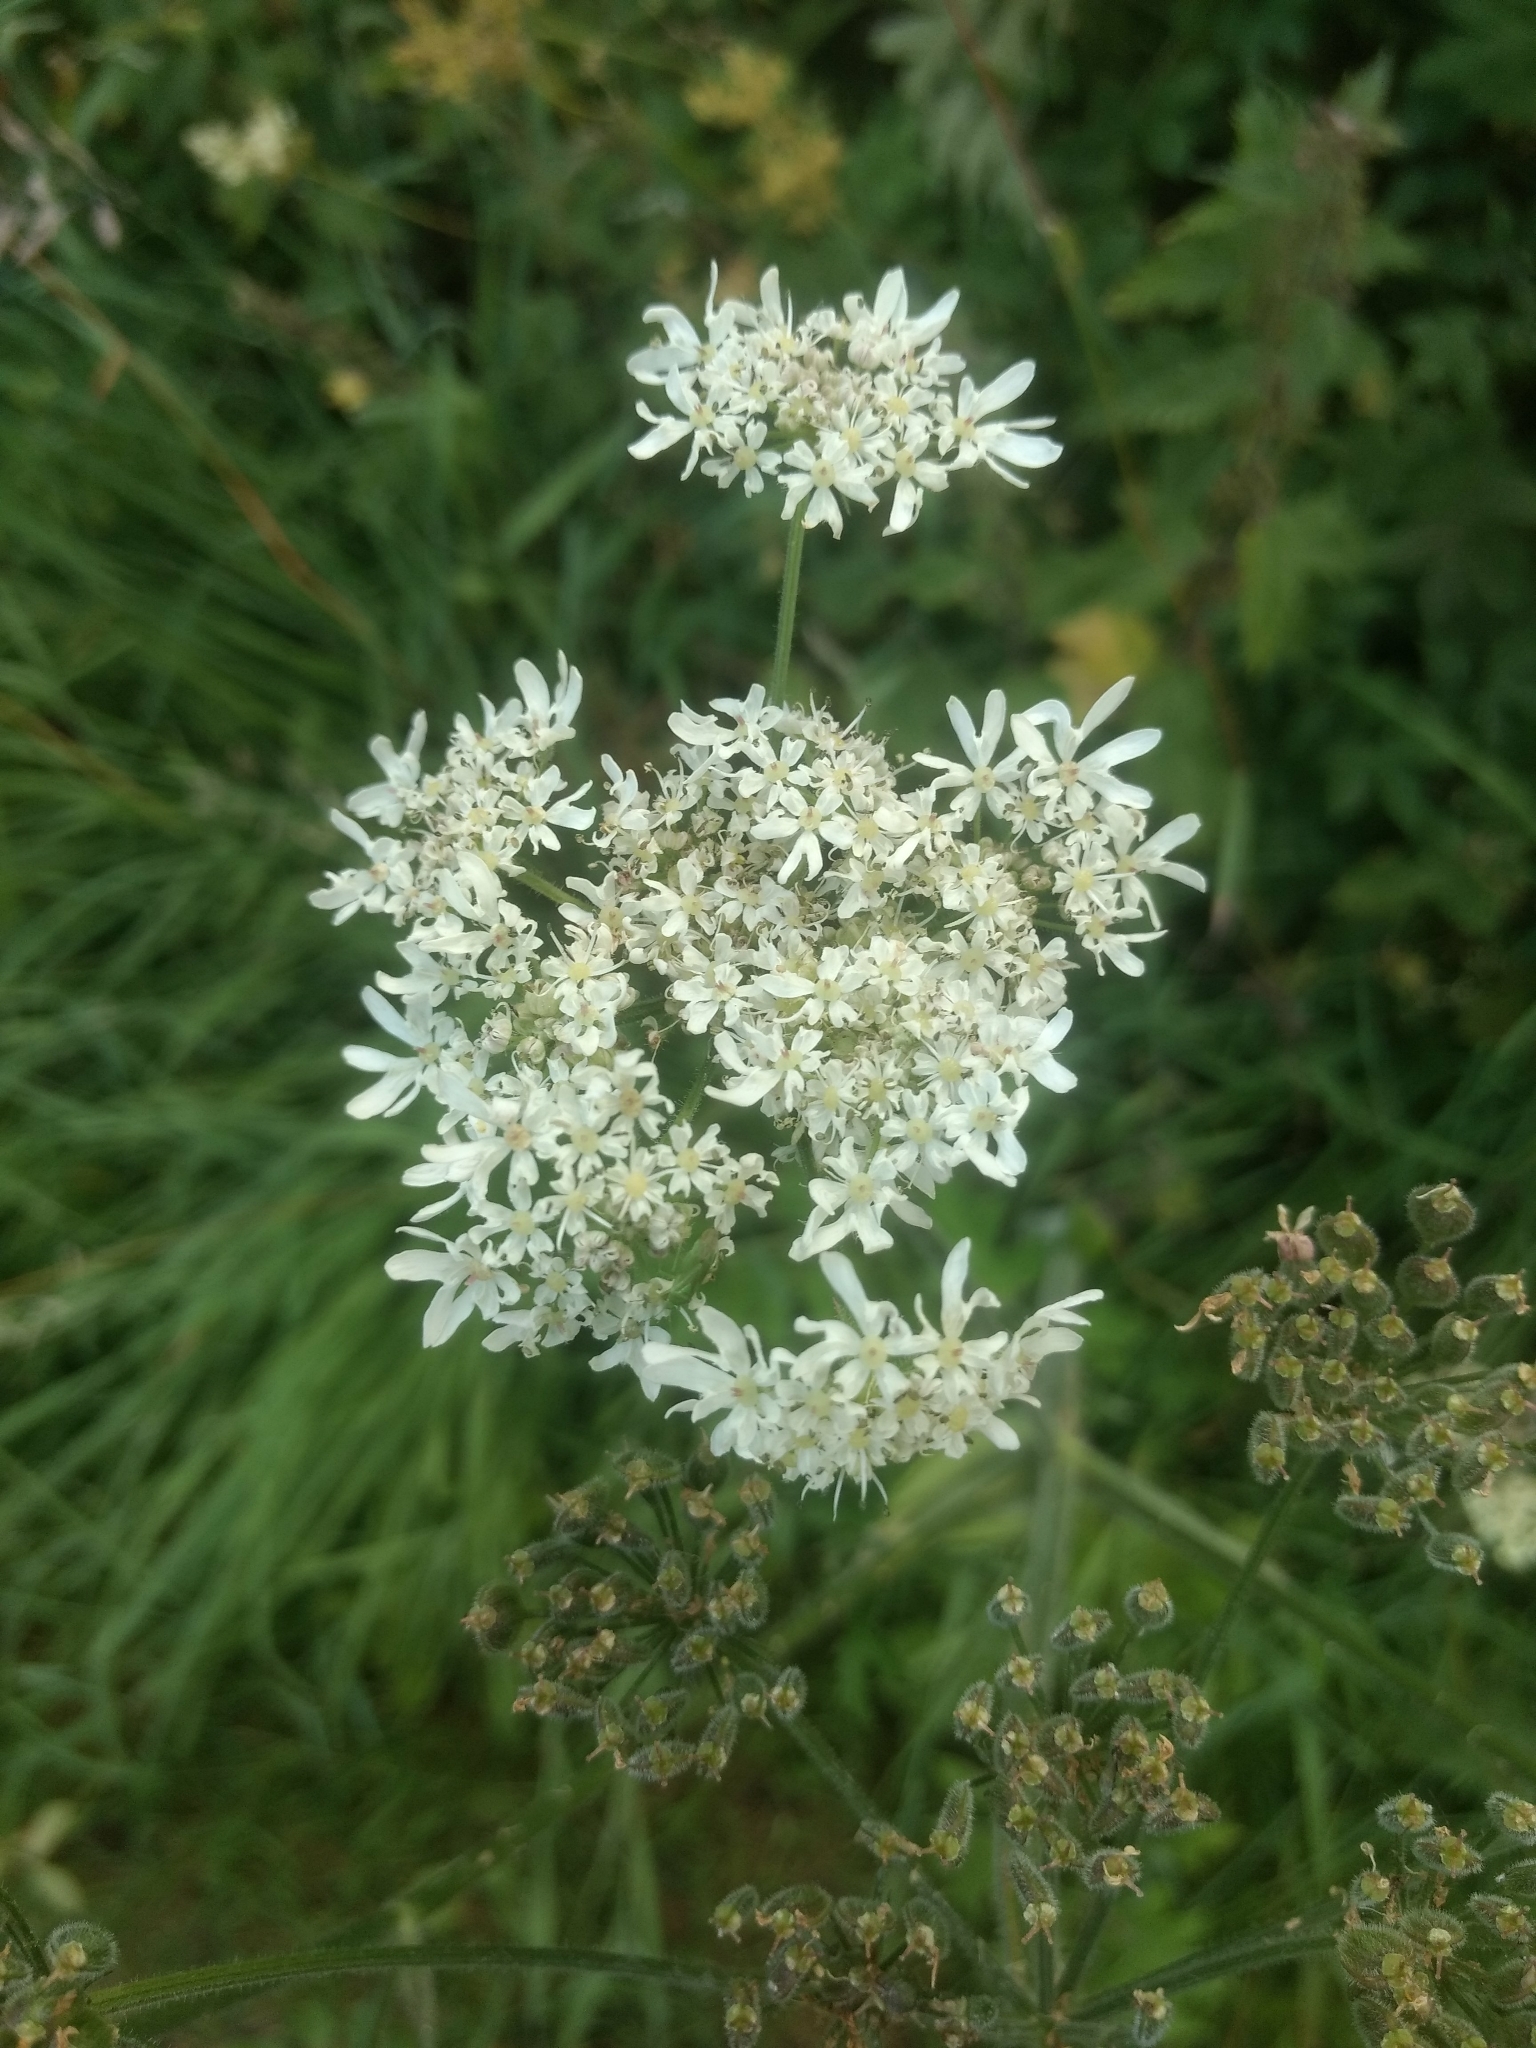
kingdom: Plantae
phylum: Tracheophyta
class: Magnoliopsida
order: Apiales
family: Apiaceae
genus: Heracleum
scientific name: Heracleum sphondylium
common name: Hogweed
